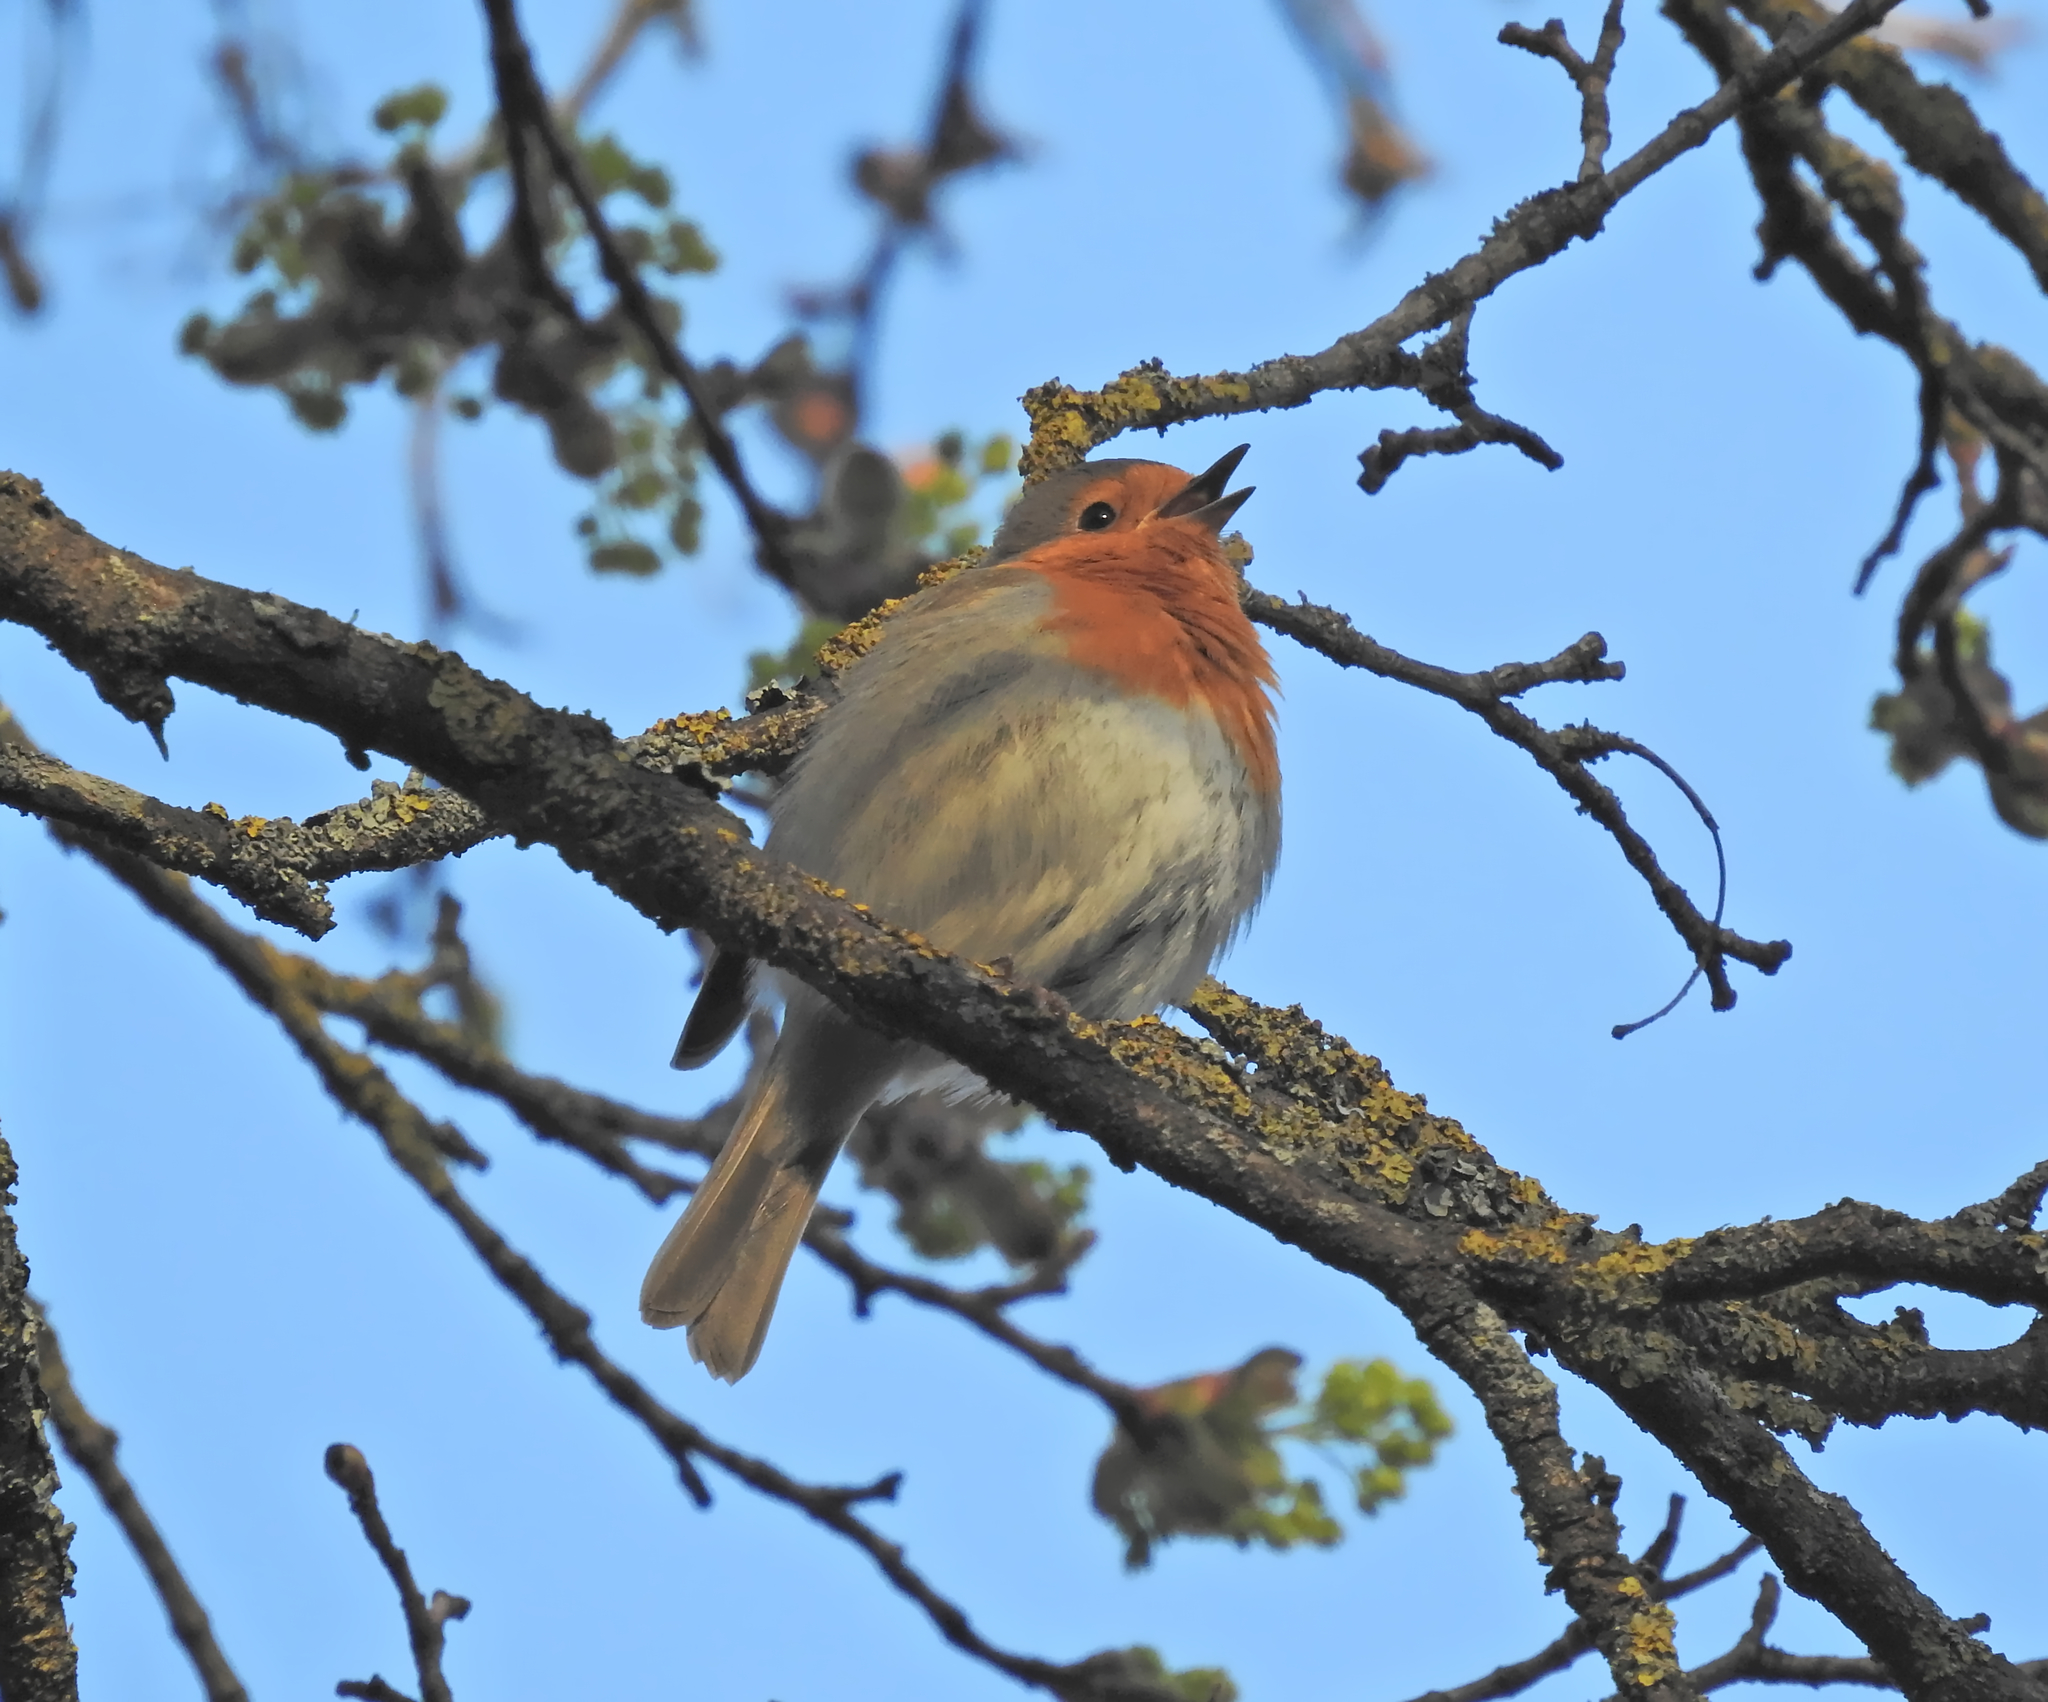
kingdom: Animalia
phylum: Chordata
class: Aves
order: Passeriformes
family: Muscicapidae
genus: Erithacus
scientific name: Erithacus rubecula
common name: European robin
